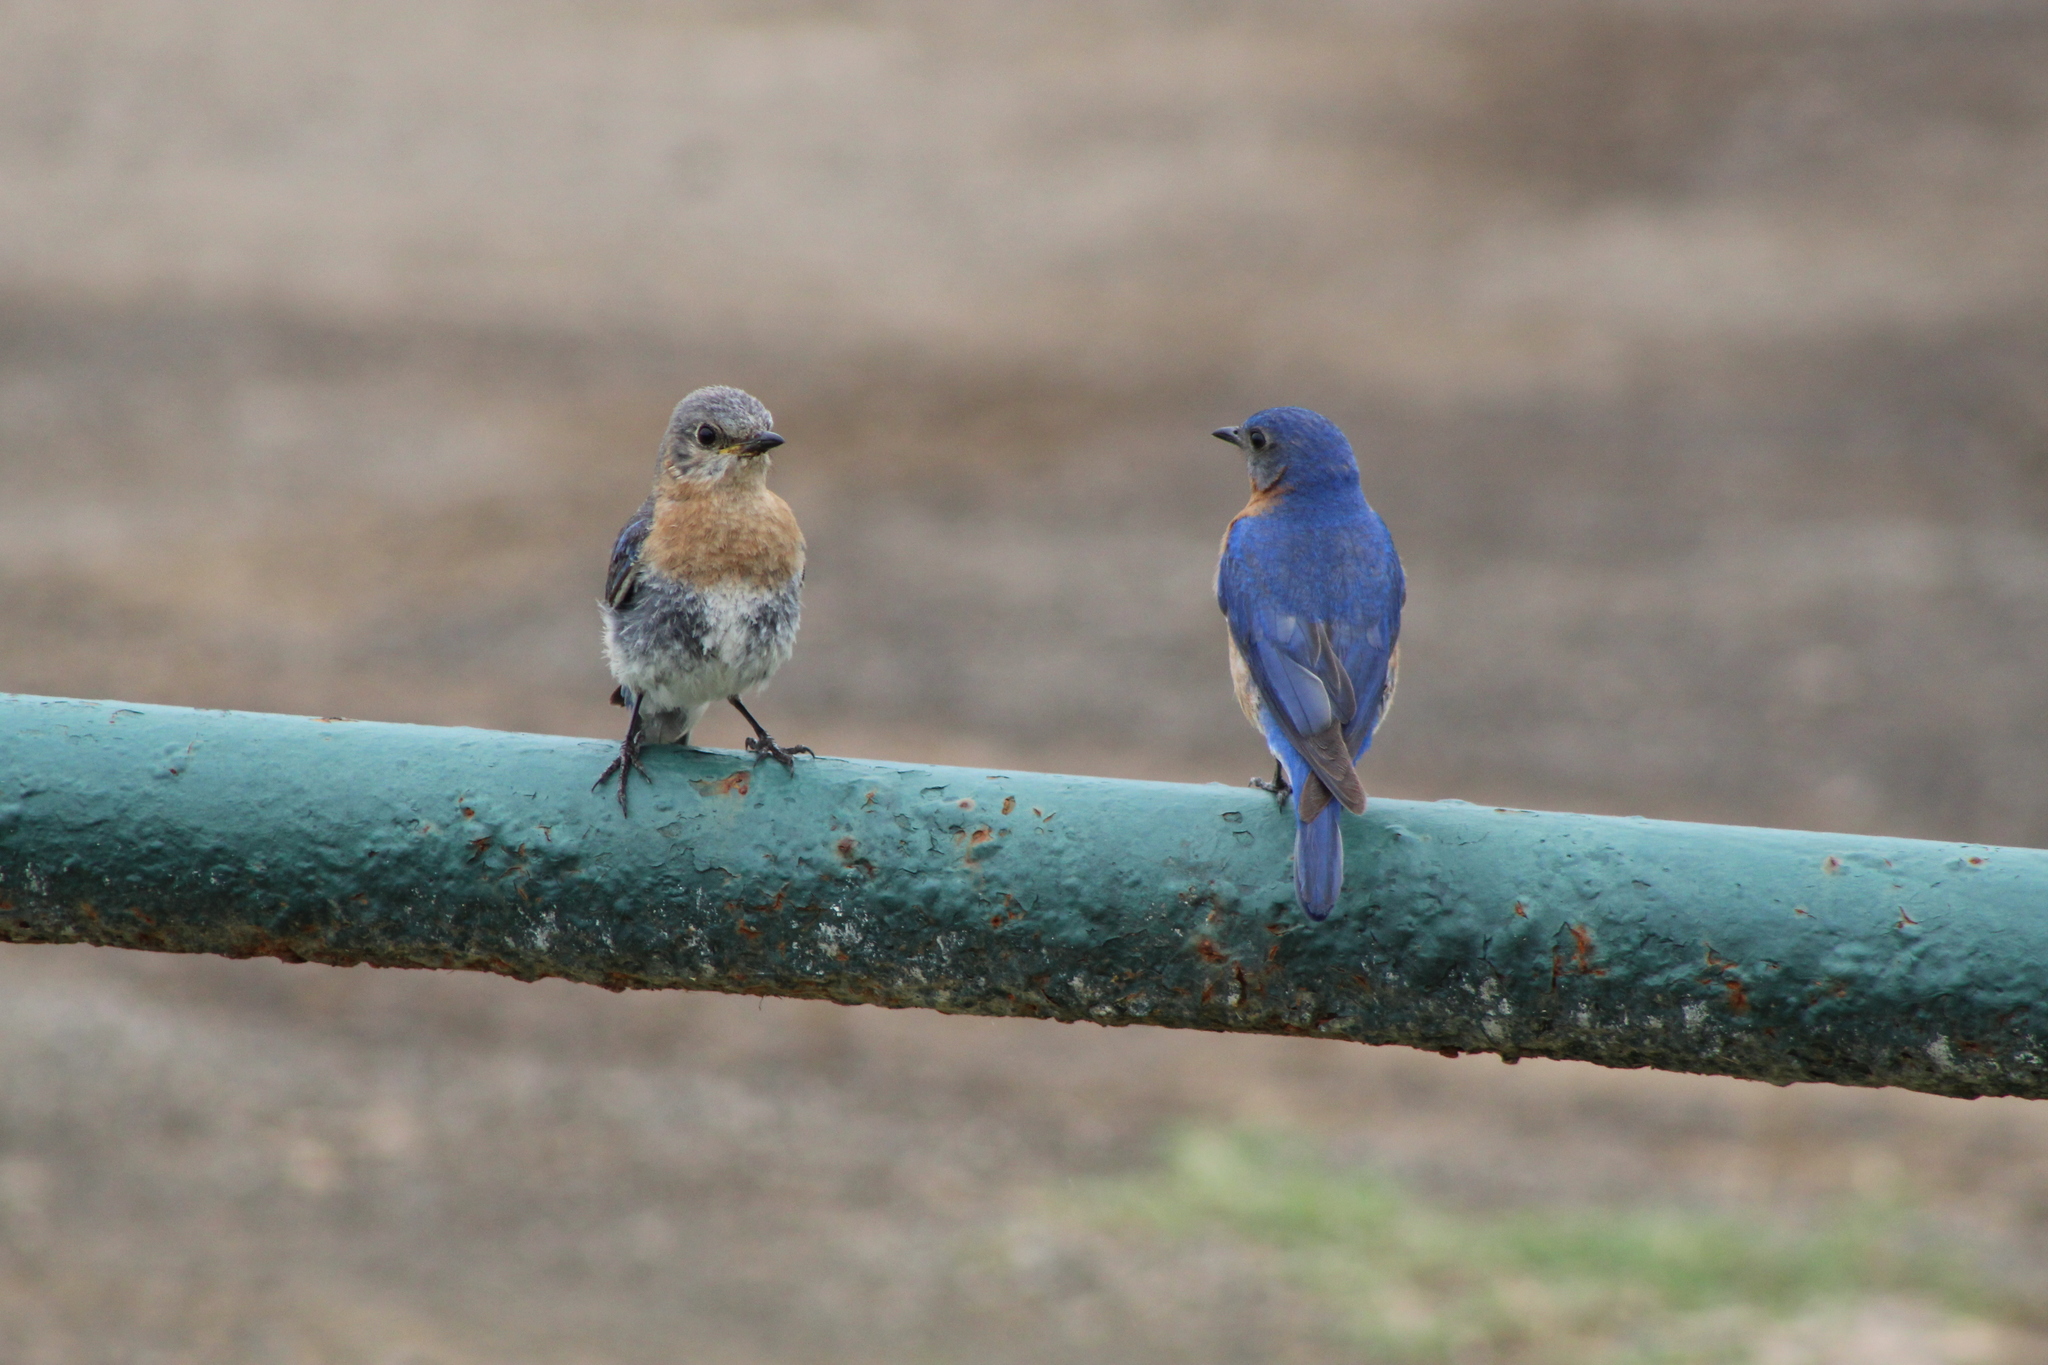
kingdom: Animalia
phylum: Chordata
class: Aves
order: Passeriformes
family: Turdidae
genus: Sialia
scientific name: Sialia sialis
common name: Eastern bluebird
